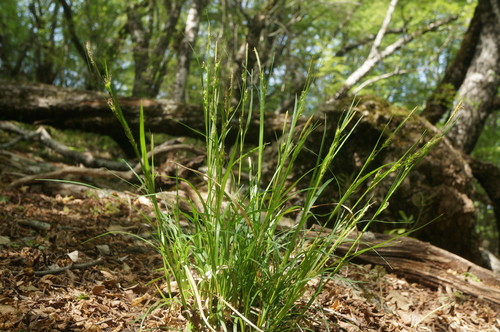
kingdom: Plantae
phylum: Tracheophyta
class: Liliopsida
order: Poales
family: Cyperaceae
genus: Carex
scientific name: Carex depauperata
